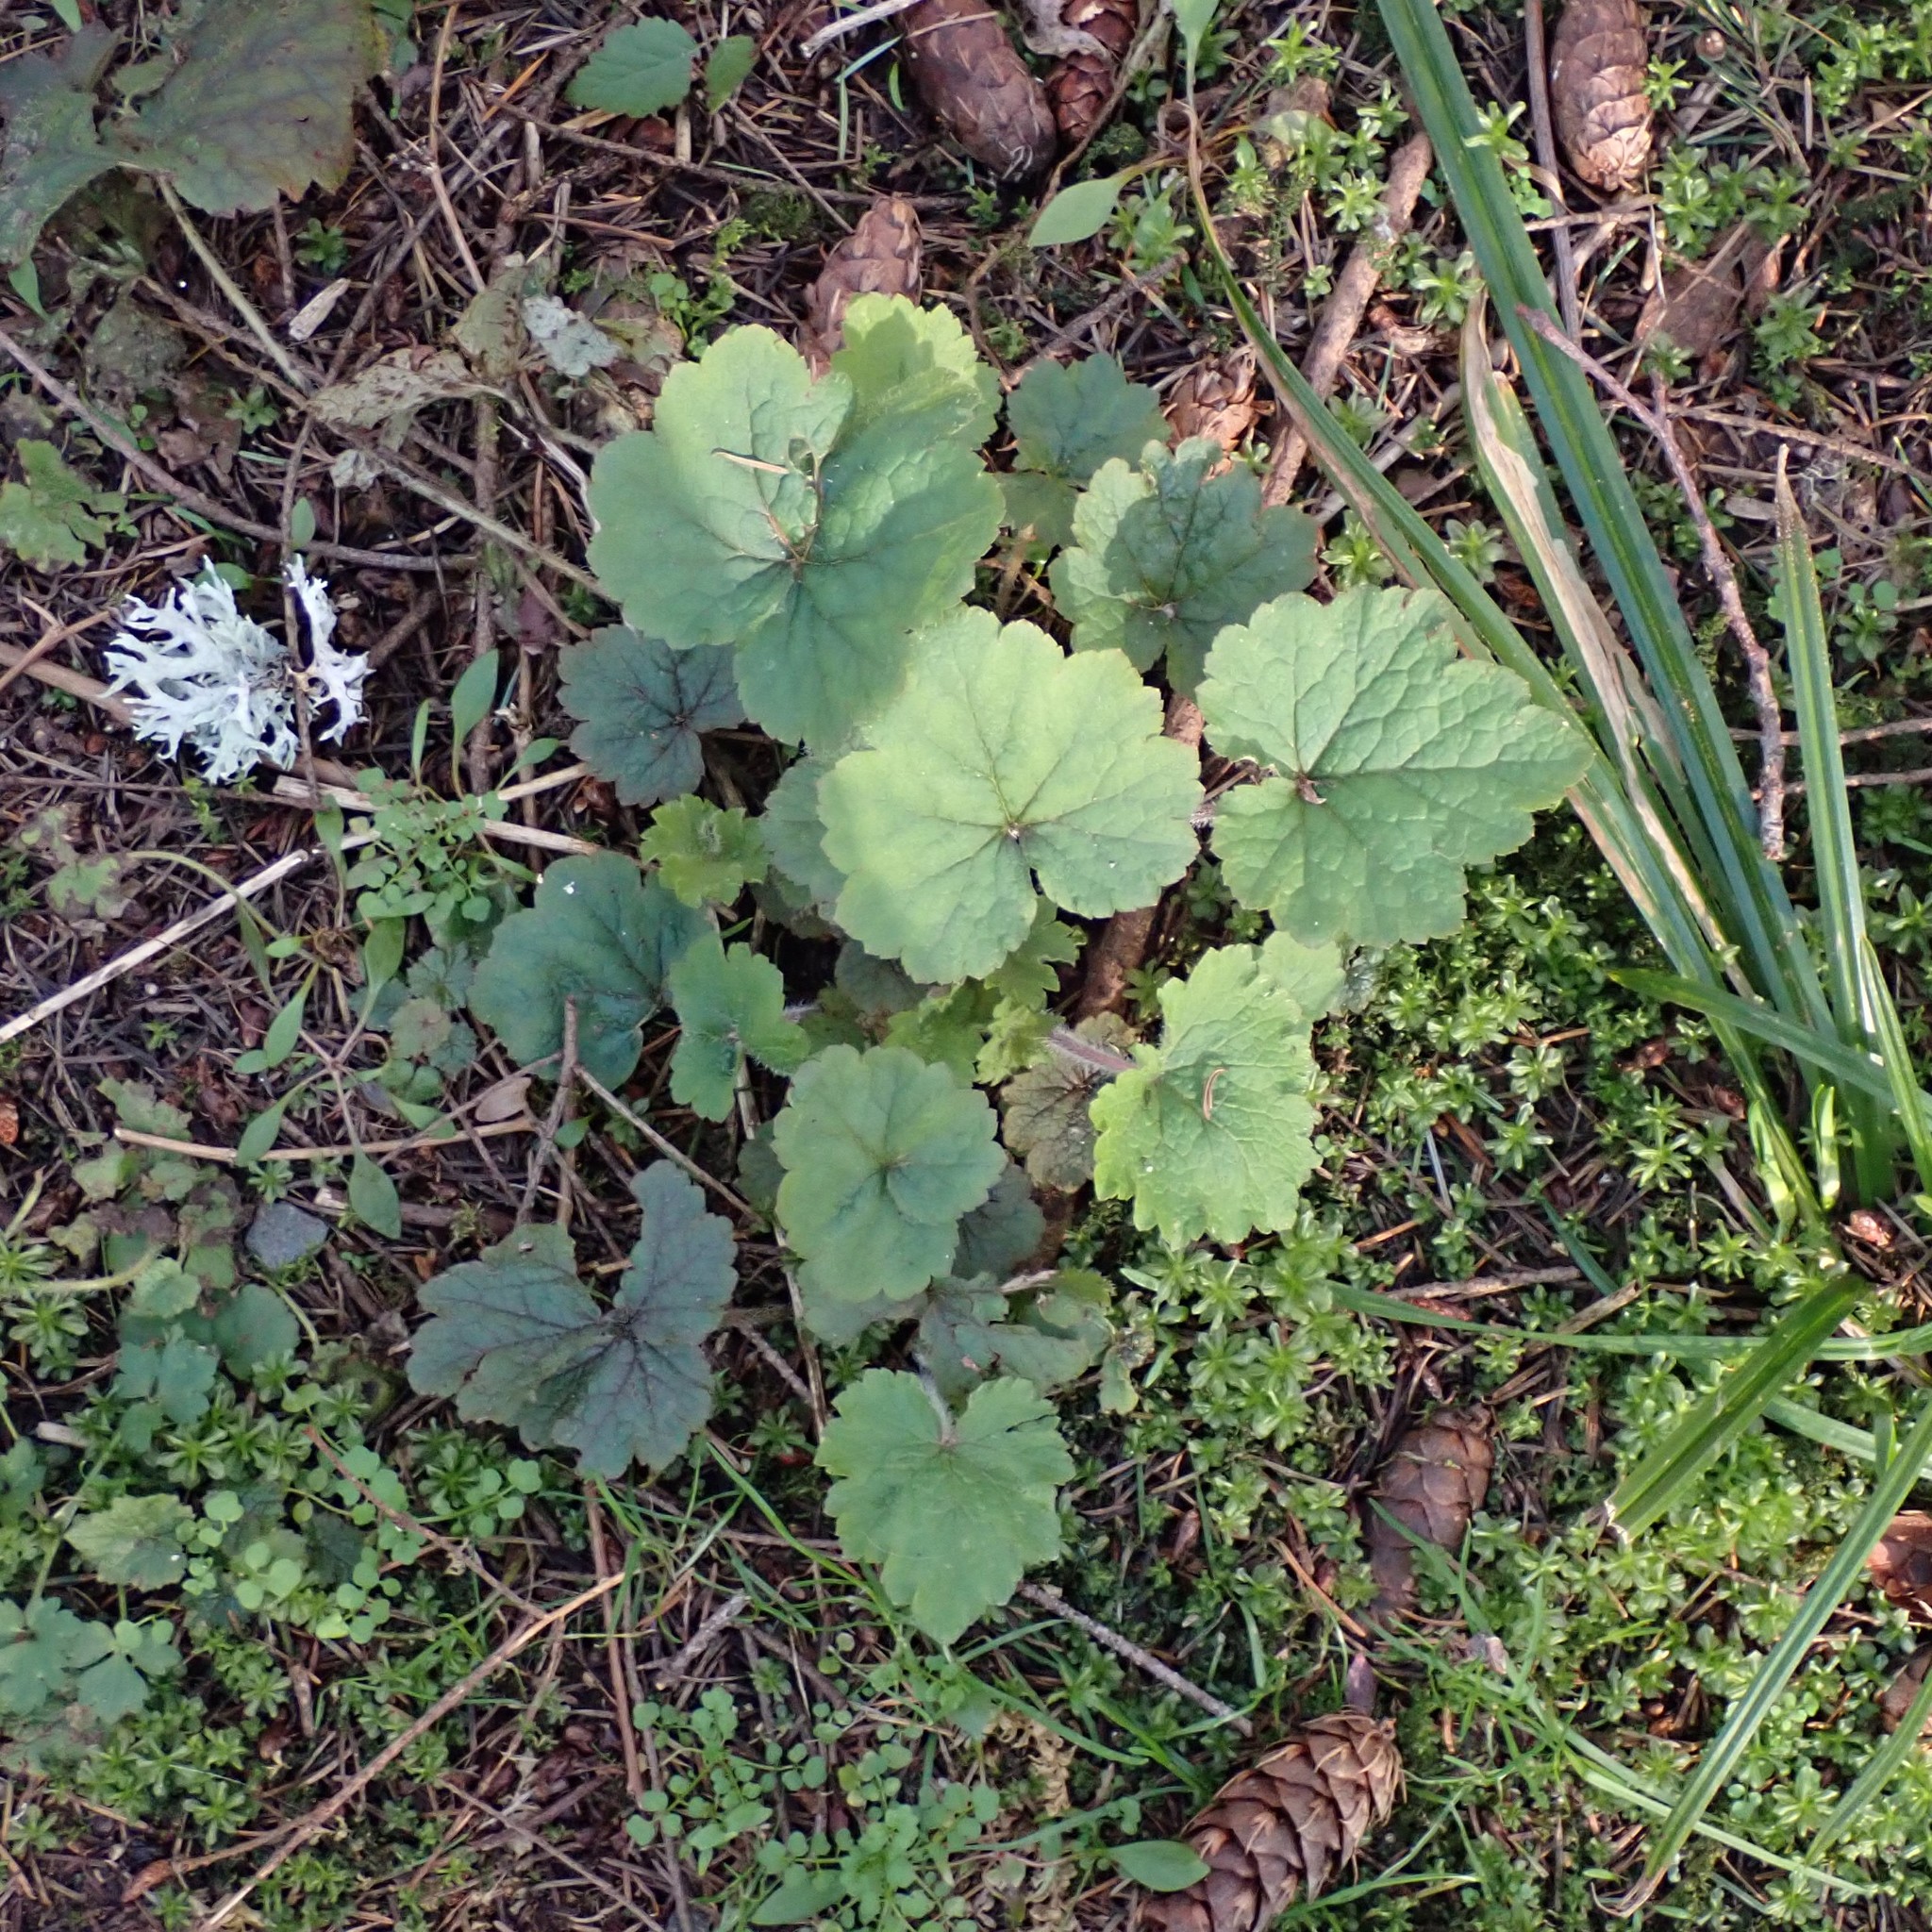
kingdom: Plantae
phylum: Tracheophyta
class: Magnoliopsida
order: Saxifragales
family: Saxifragaceae
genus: Tellima
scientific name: Tellima grandiflora
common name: Fringecups
